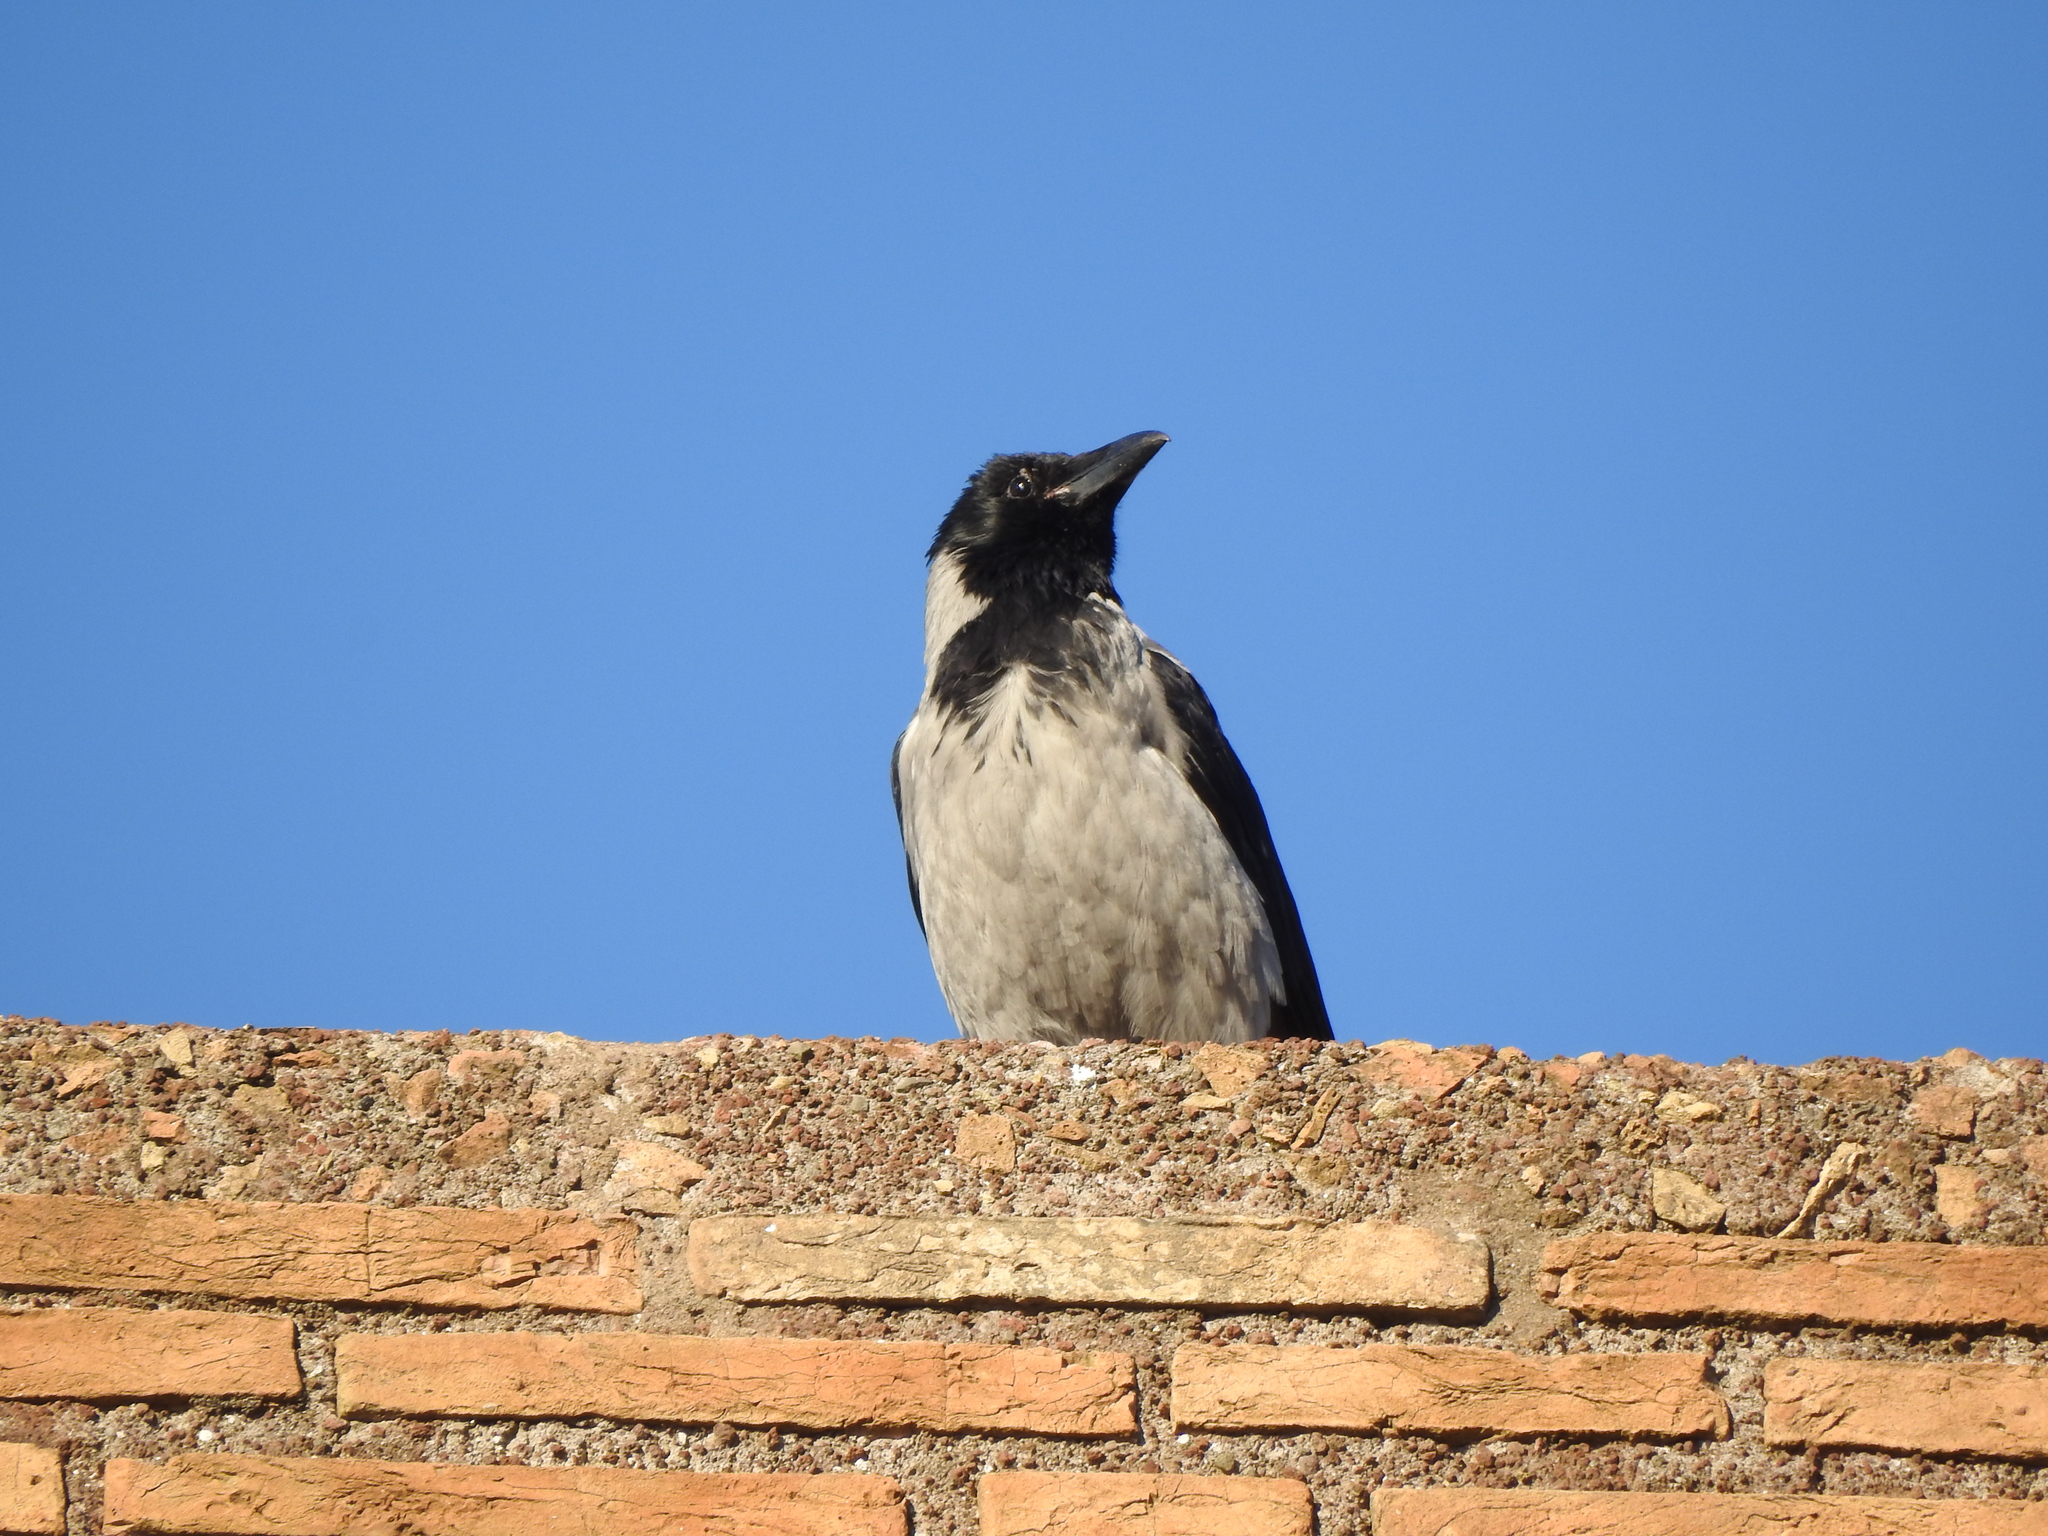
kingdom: Animalia
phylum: Chordata
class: Aves
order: Passeriformes
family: Corvidae
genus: Corvus
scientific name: Corvus cornix
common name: Hooded crow
